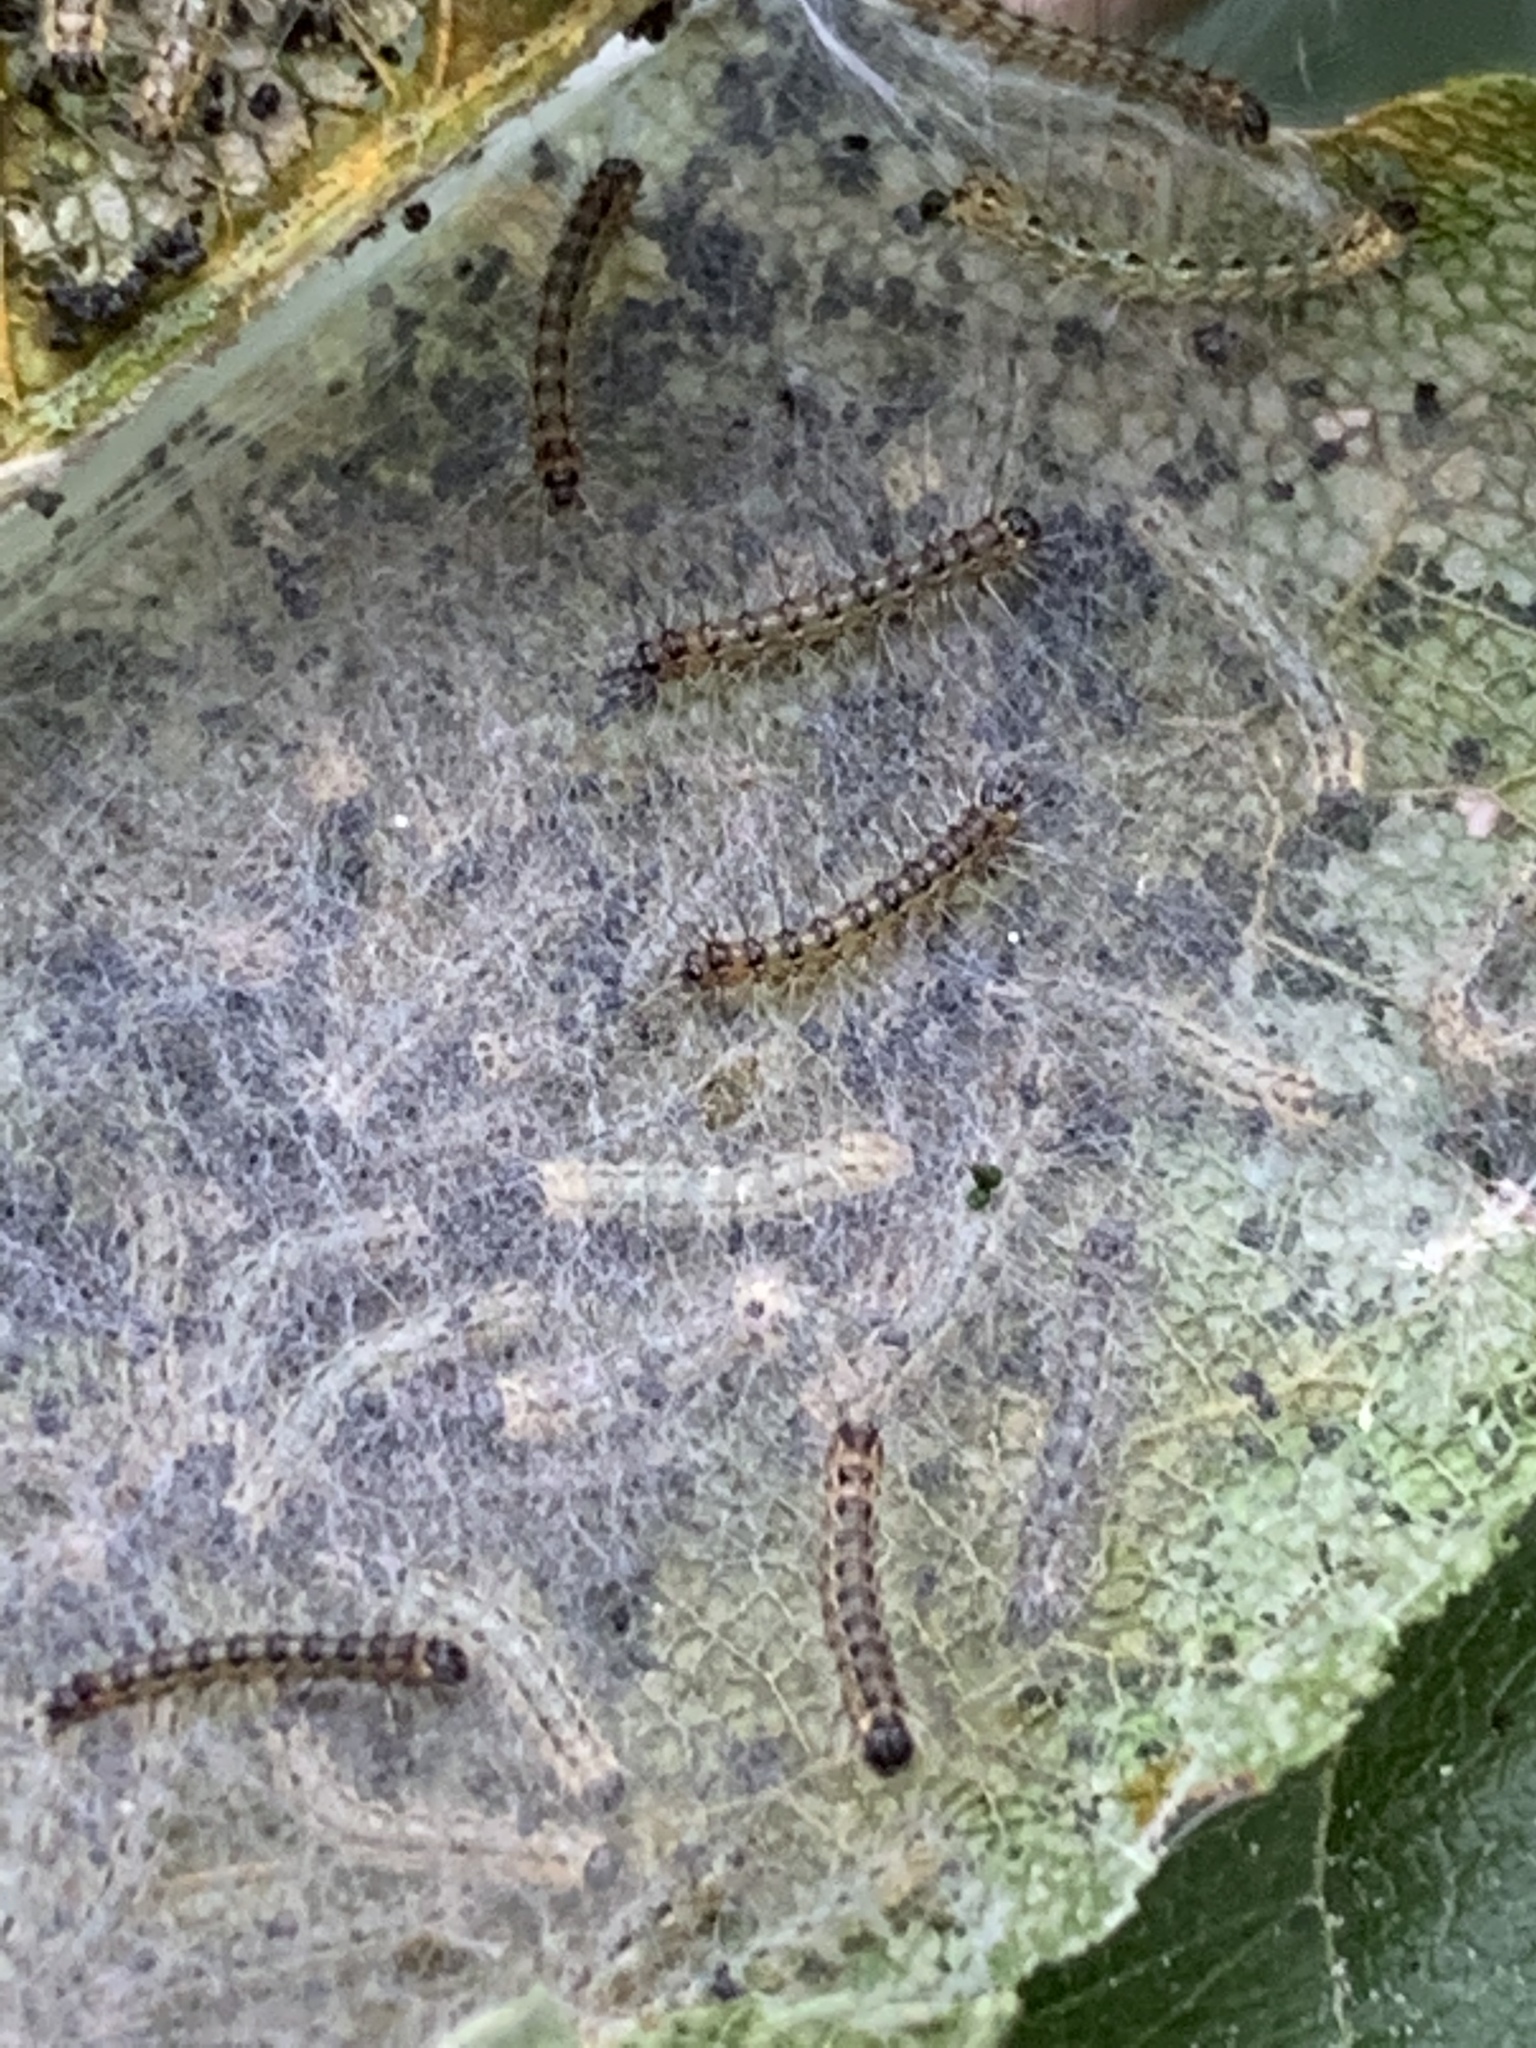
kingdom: Animalia
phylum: Arthropoda
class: Insecta
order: Lepidoptera
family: Erebidae
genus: Hyphantria
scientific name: Hyphantria cunea
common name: American white moth
